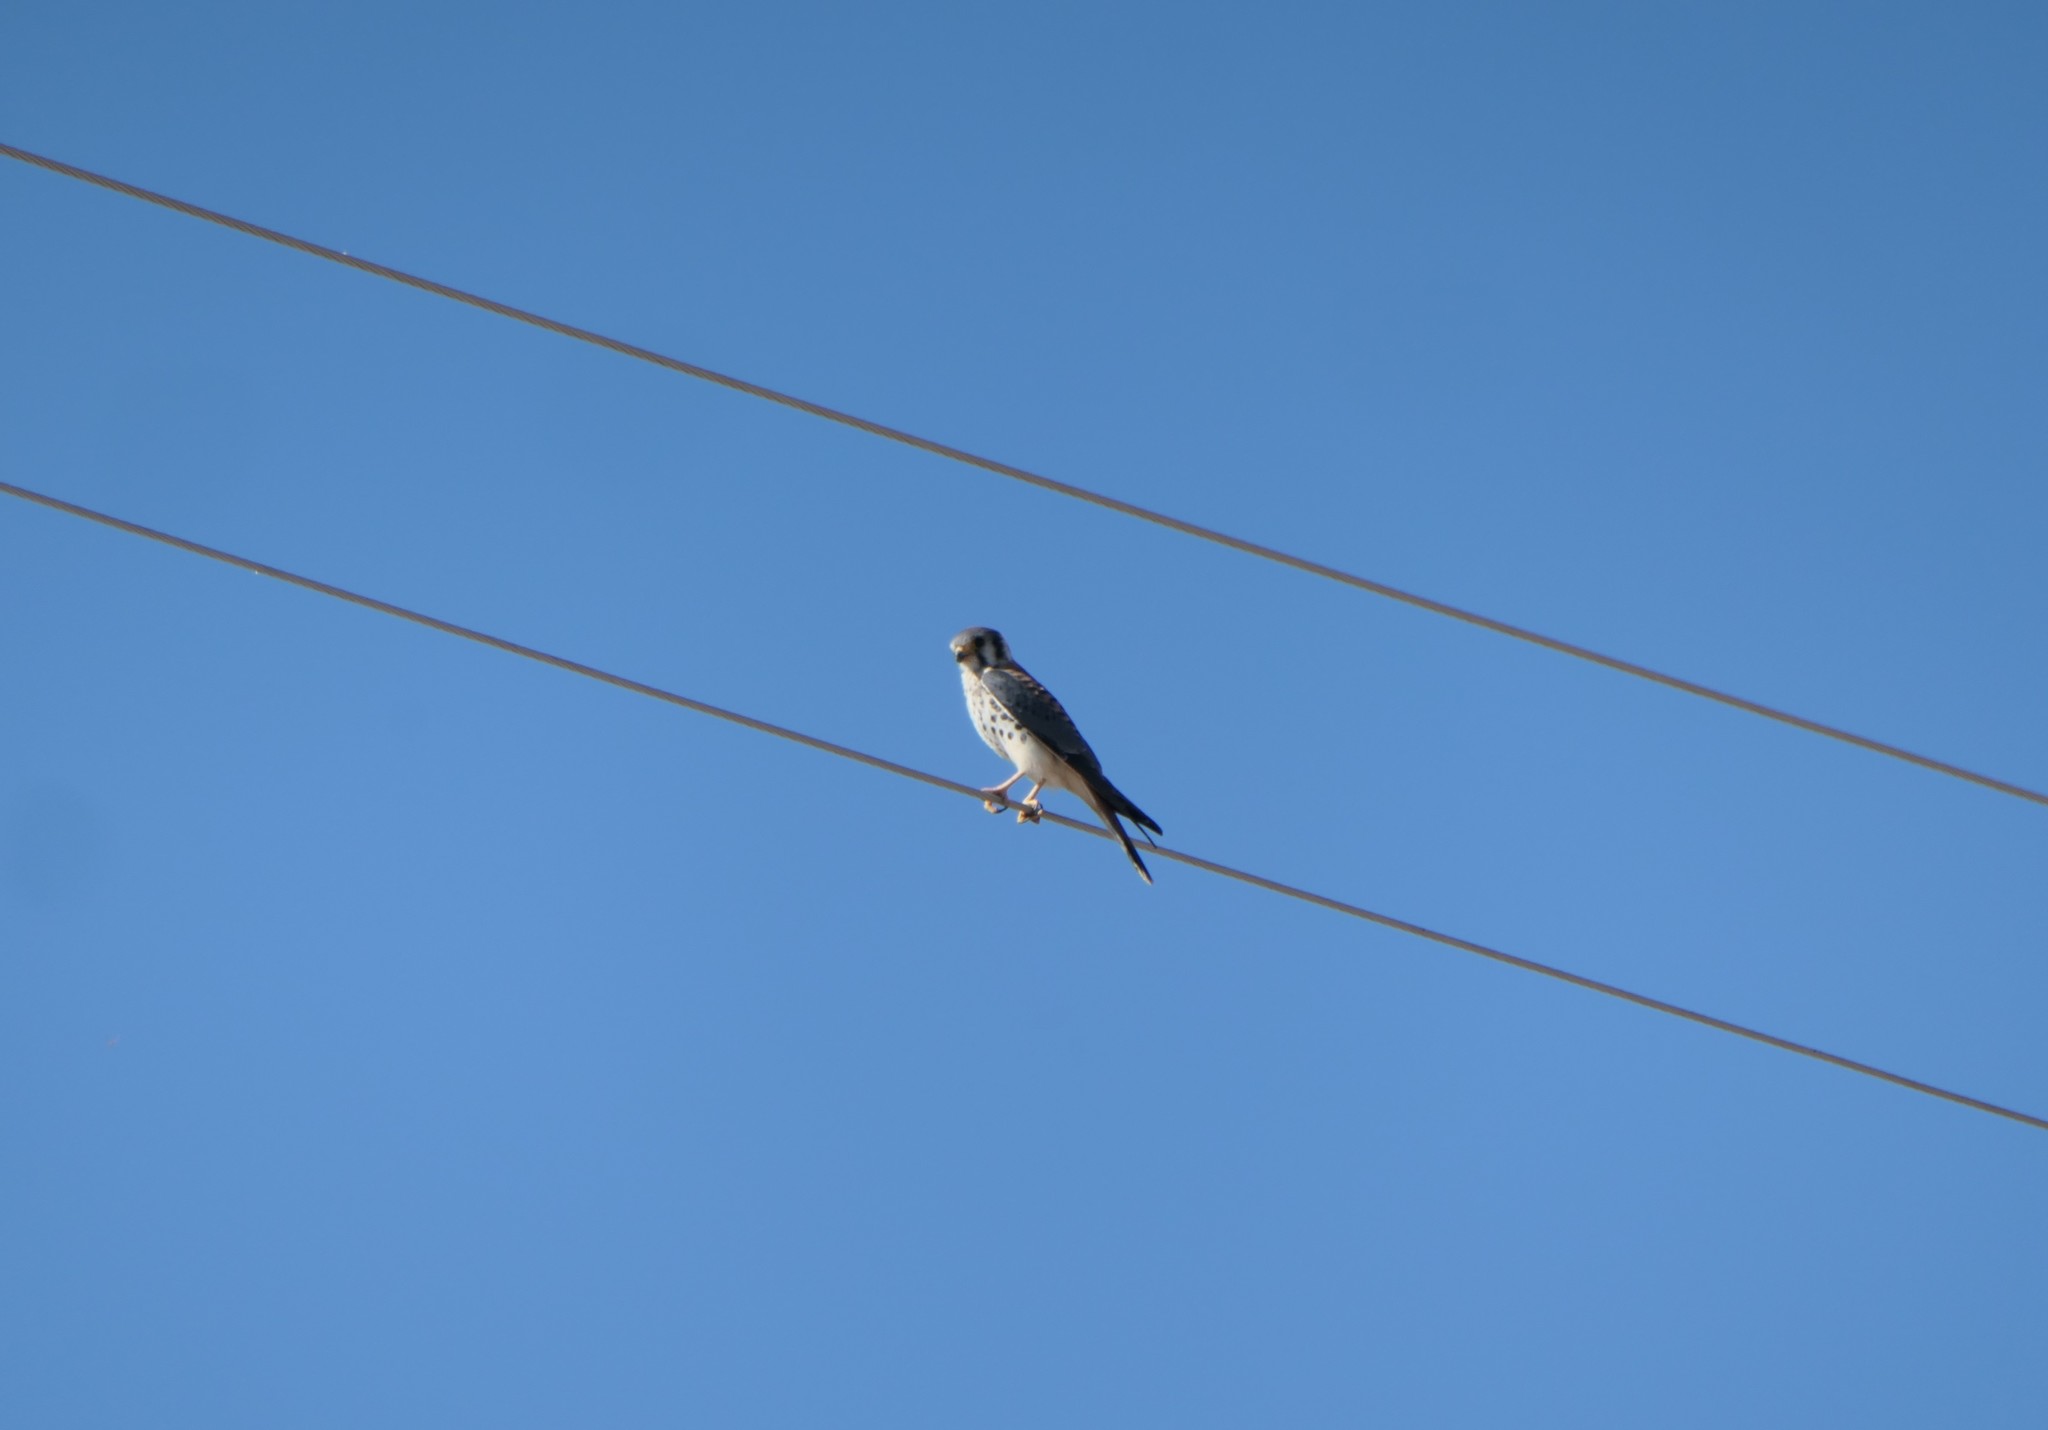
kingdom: Animalia
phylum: Chordata
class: Aves
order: Falconiformes
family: Falconidae
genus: Falco
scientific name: Falco sparverius
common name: American kestrel
